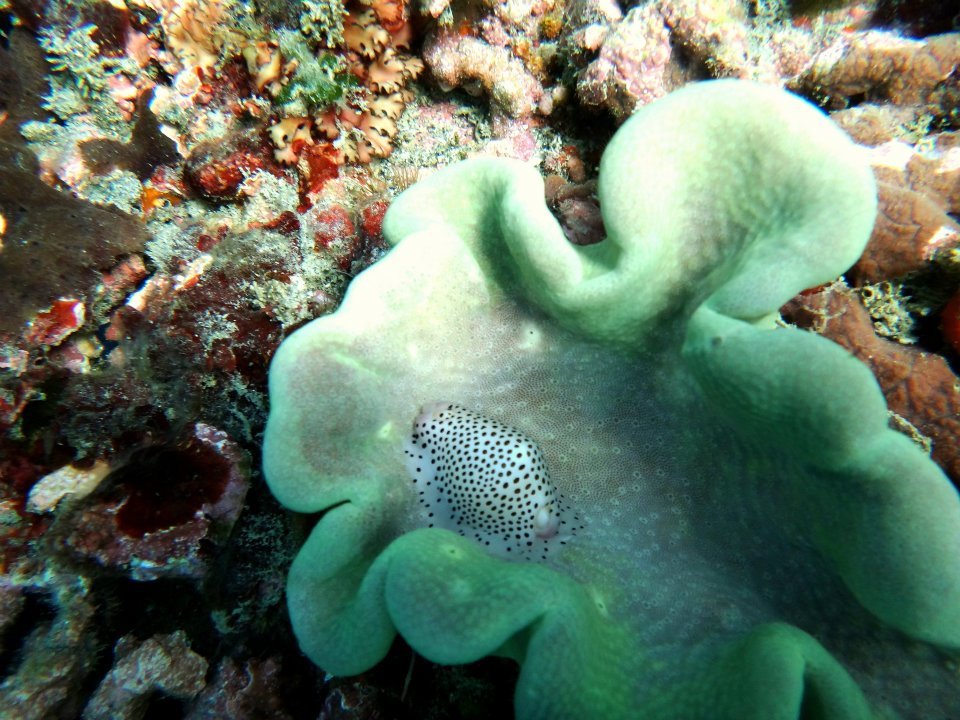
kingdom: Animalia
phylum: Mollusca
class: Gastropoda
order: Littorinimorpha
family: Ovulidae
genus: Calpurnus
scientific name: Calpurnus verrucosus
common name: Common calpurnus
